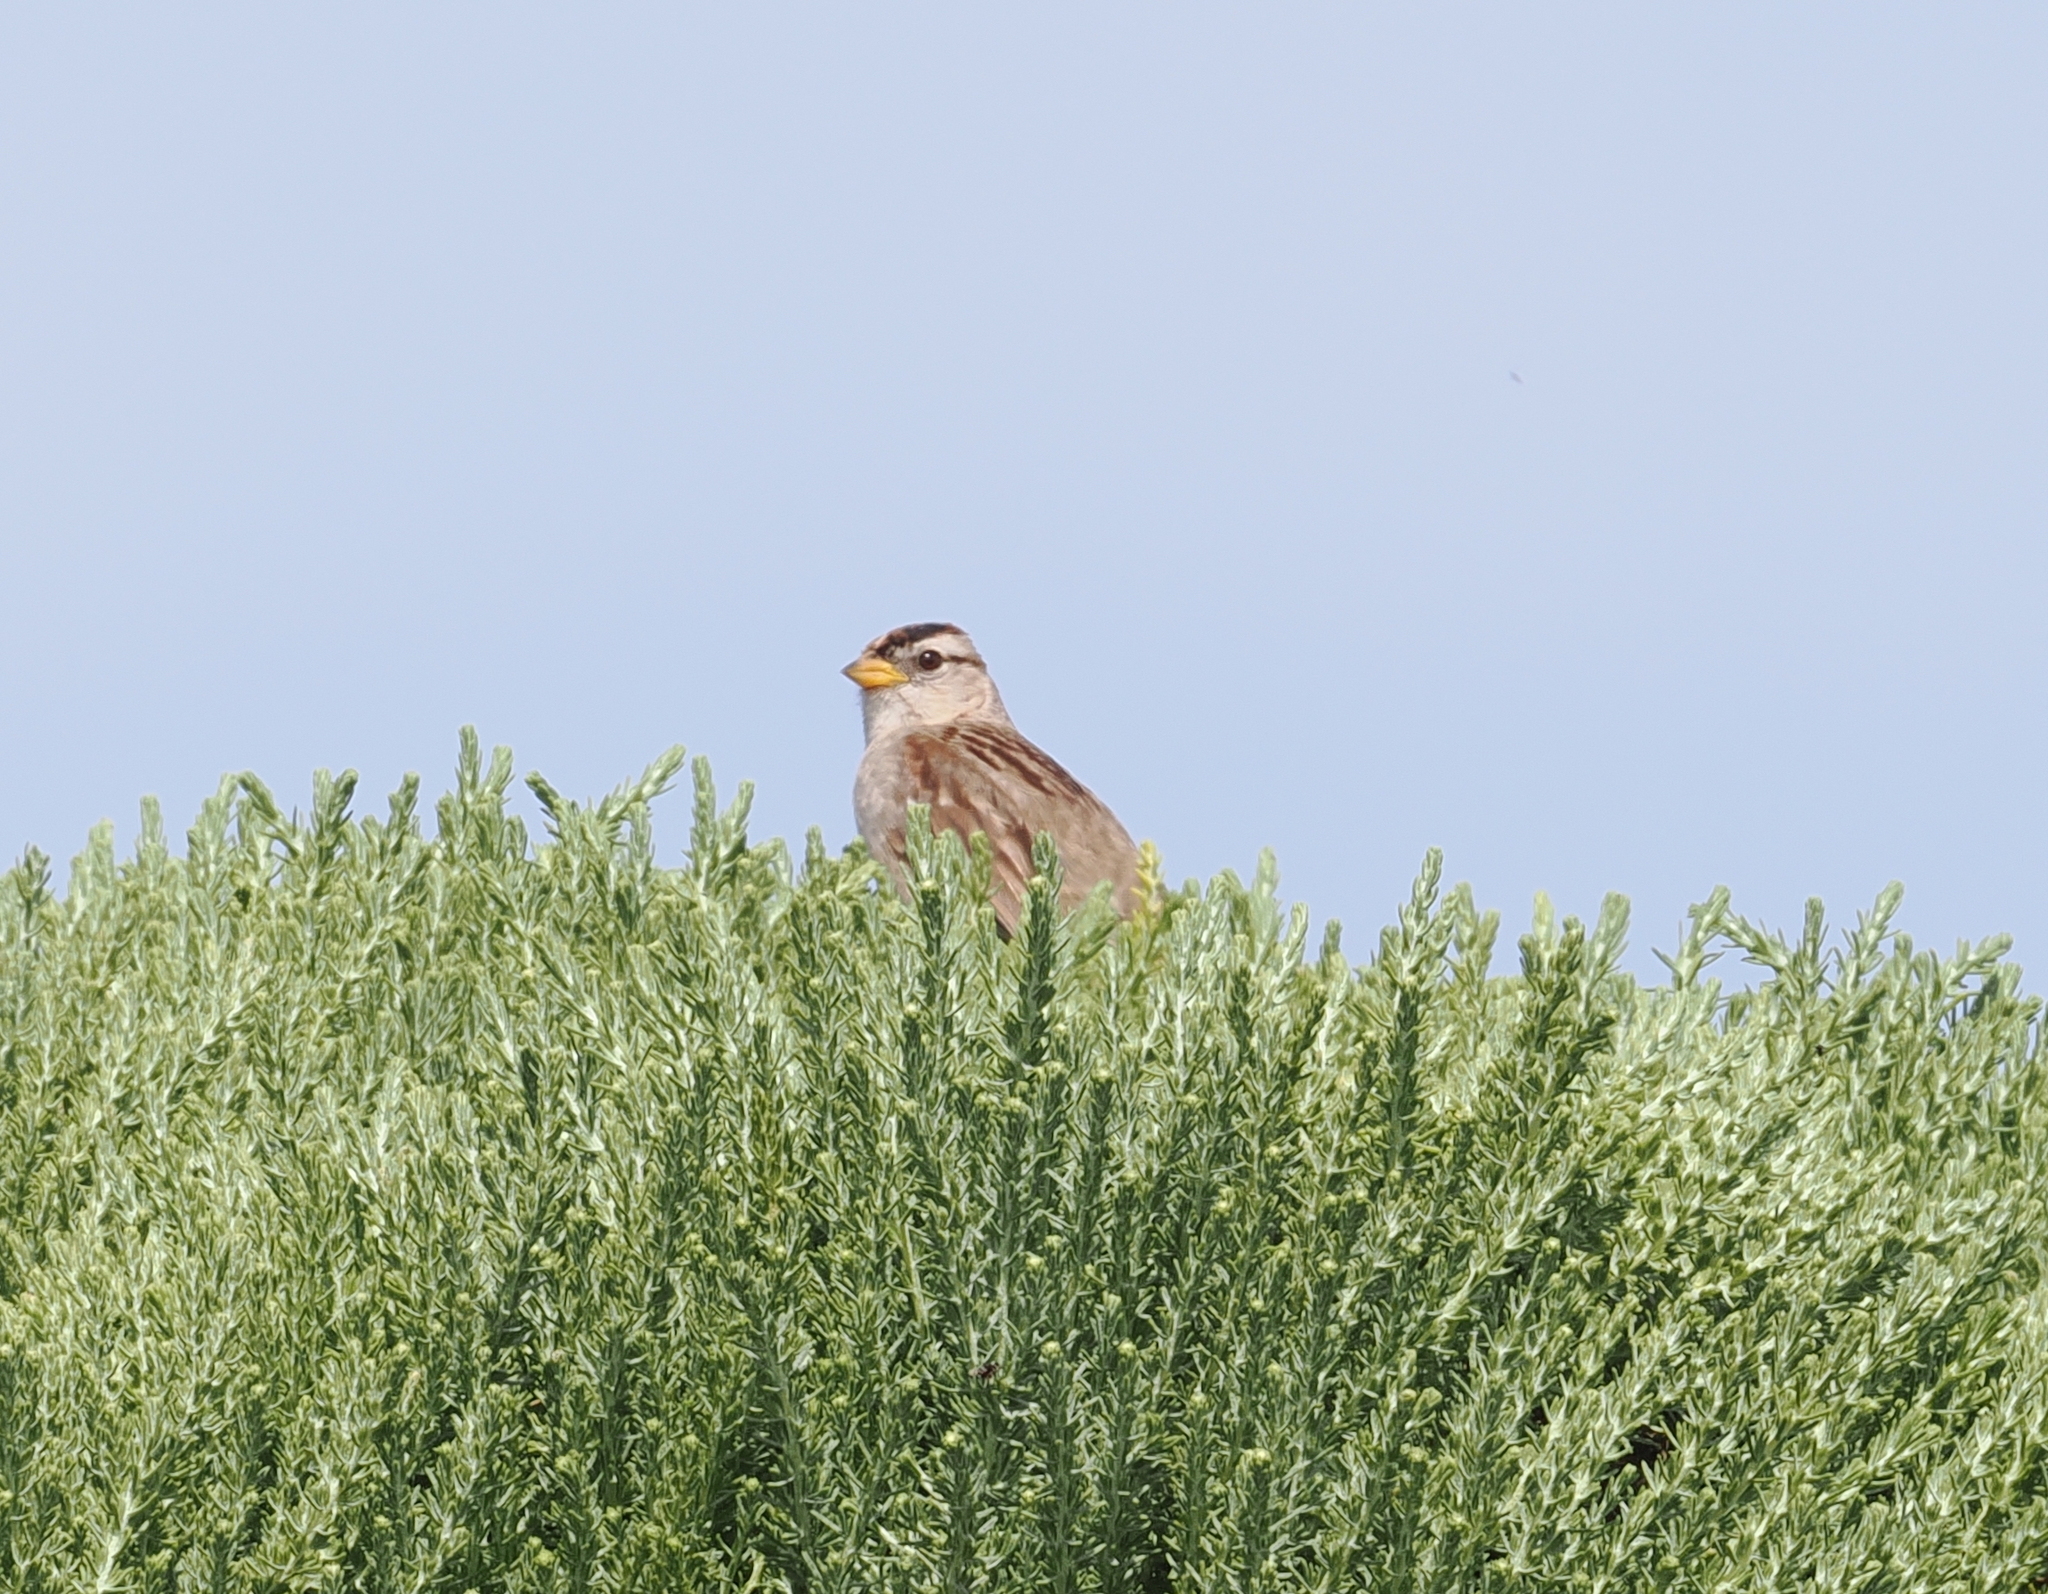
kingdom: Animalia
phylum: Chordata
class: Aves
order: Passeriformes
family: Passerellidae
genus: Zonotrichia
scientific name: Zonotrichia leucophrys
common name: White-crowned sparrow
